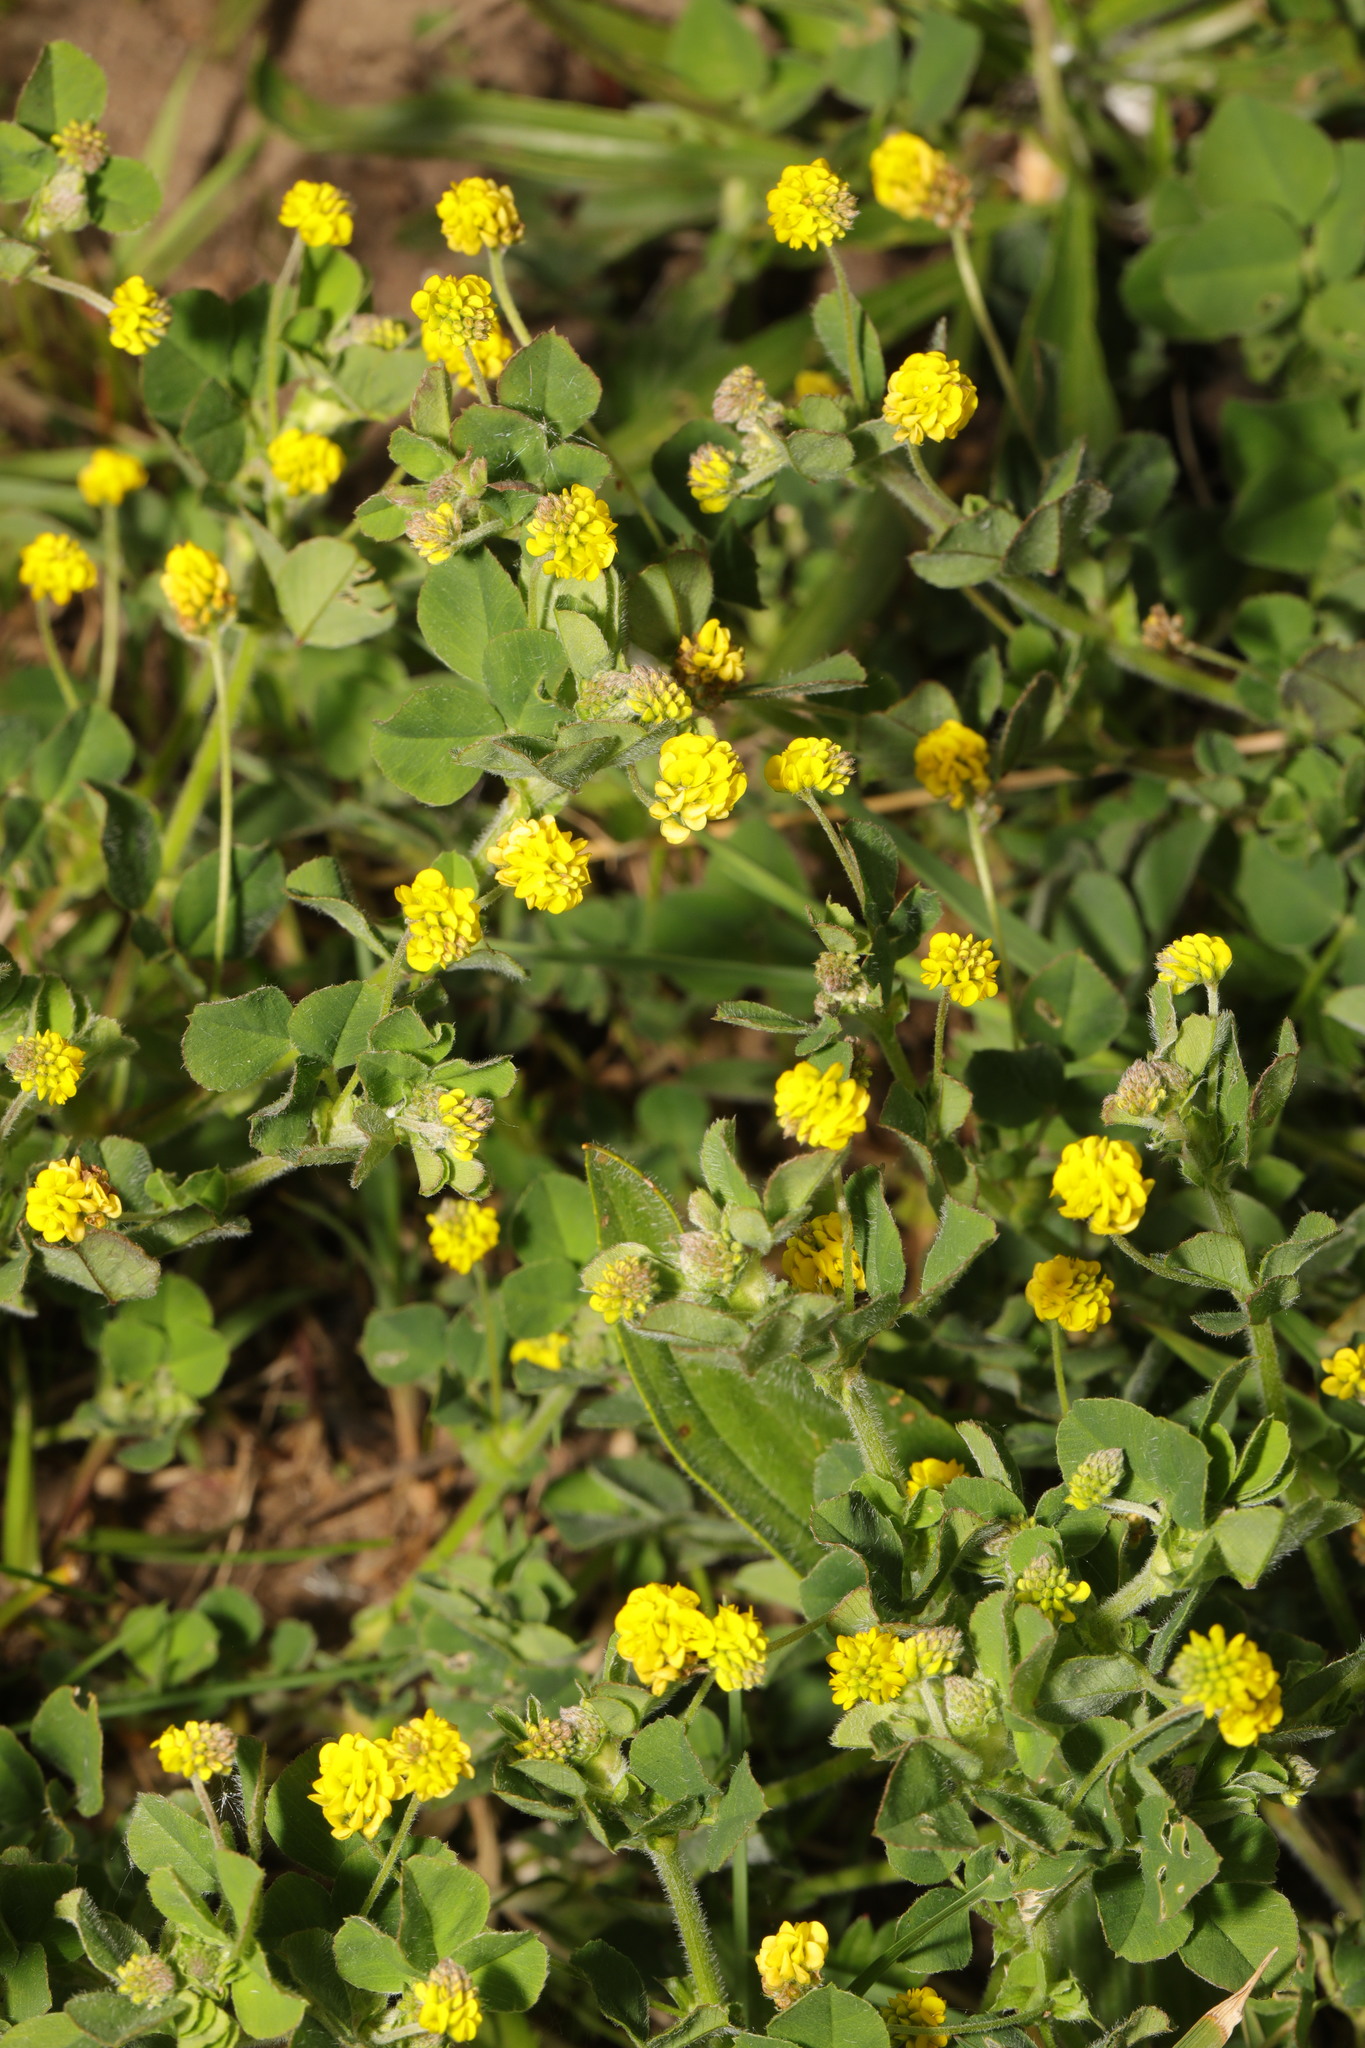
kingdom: Plantae
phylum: Tracheophyta
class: Magnoliopsida
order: Fabales
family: Fabaceae
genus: Medicago
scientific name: Medicago lupulina
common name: Black medick
